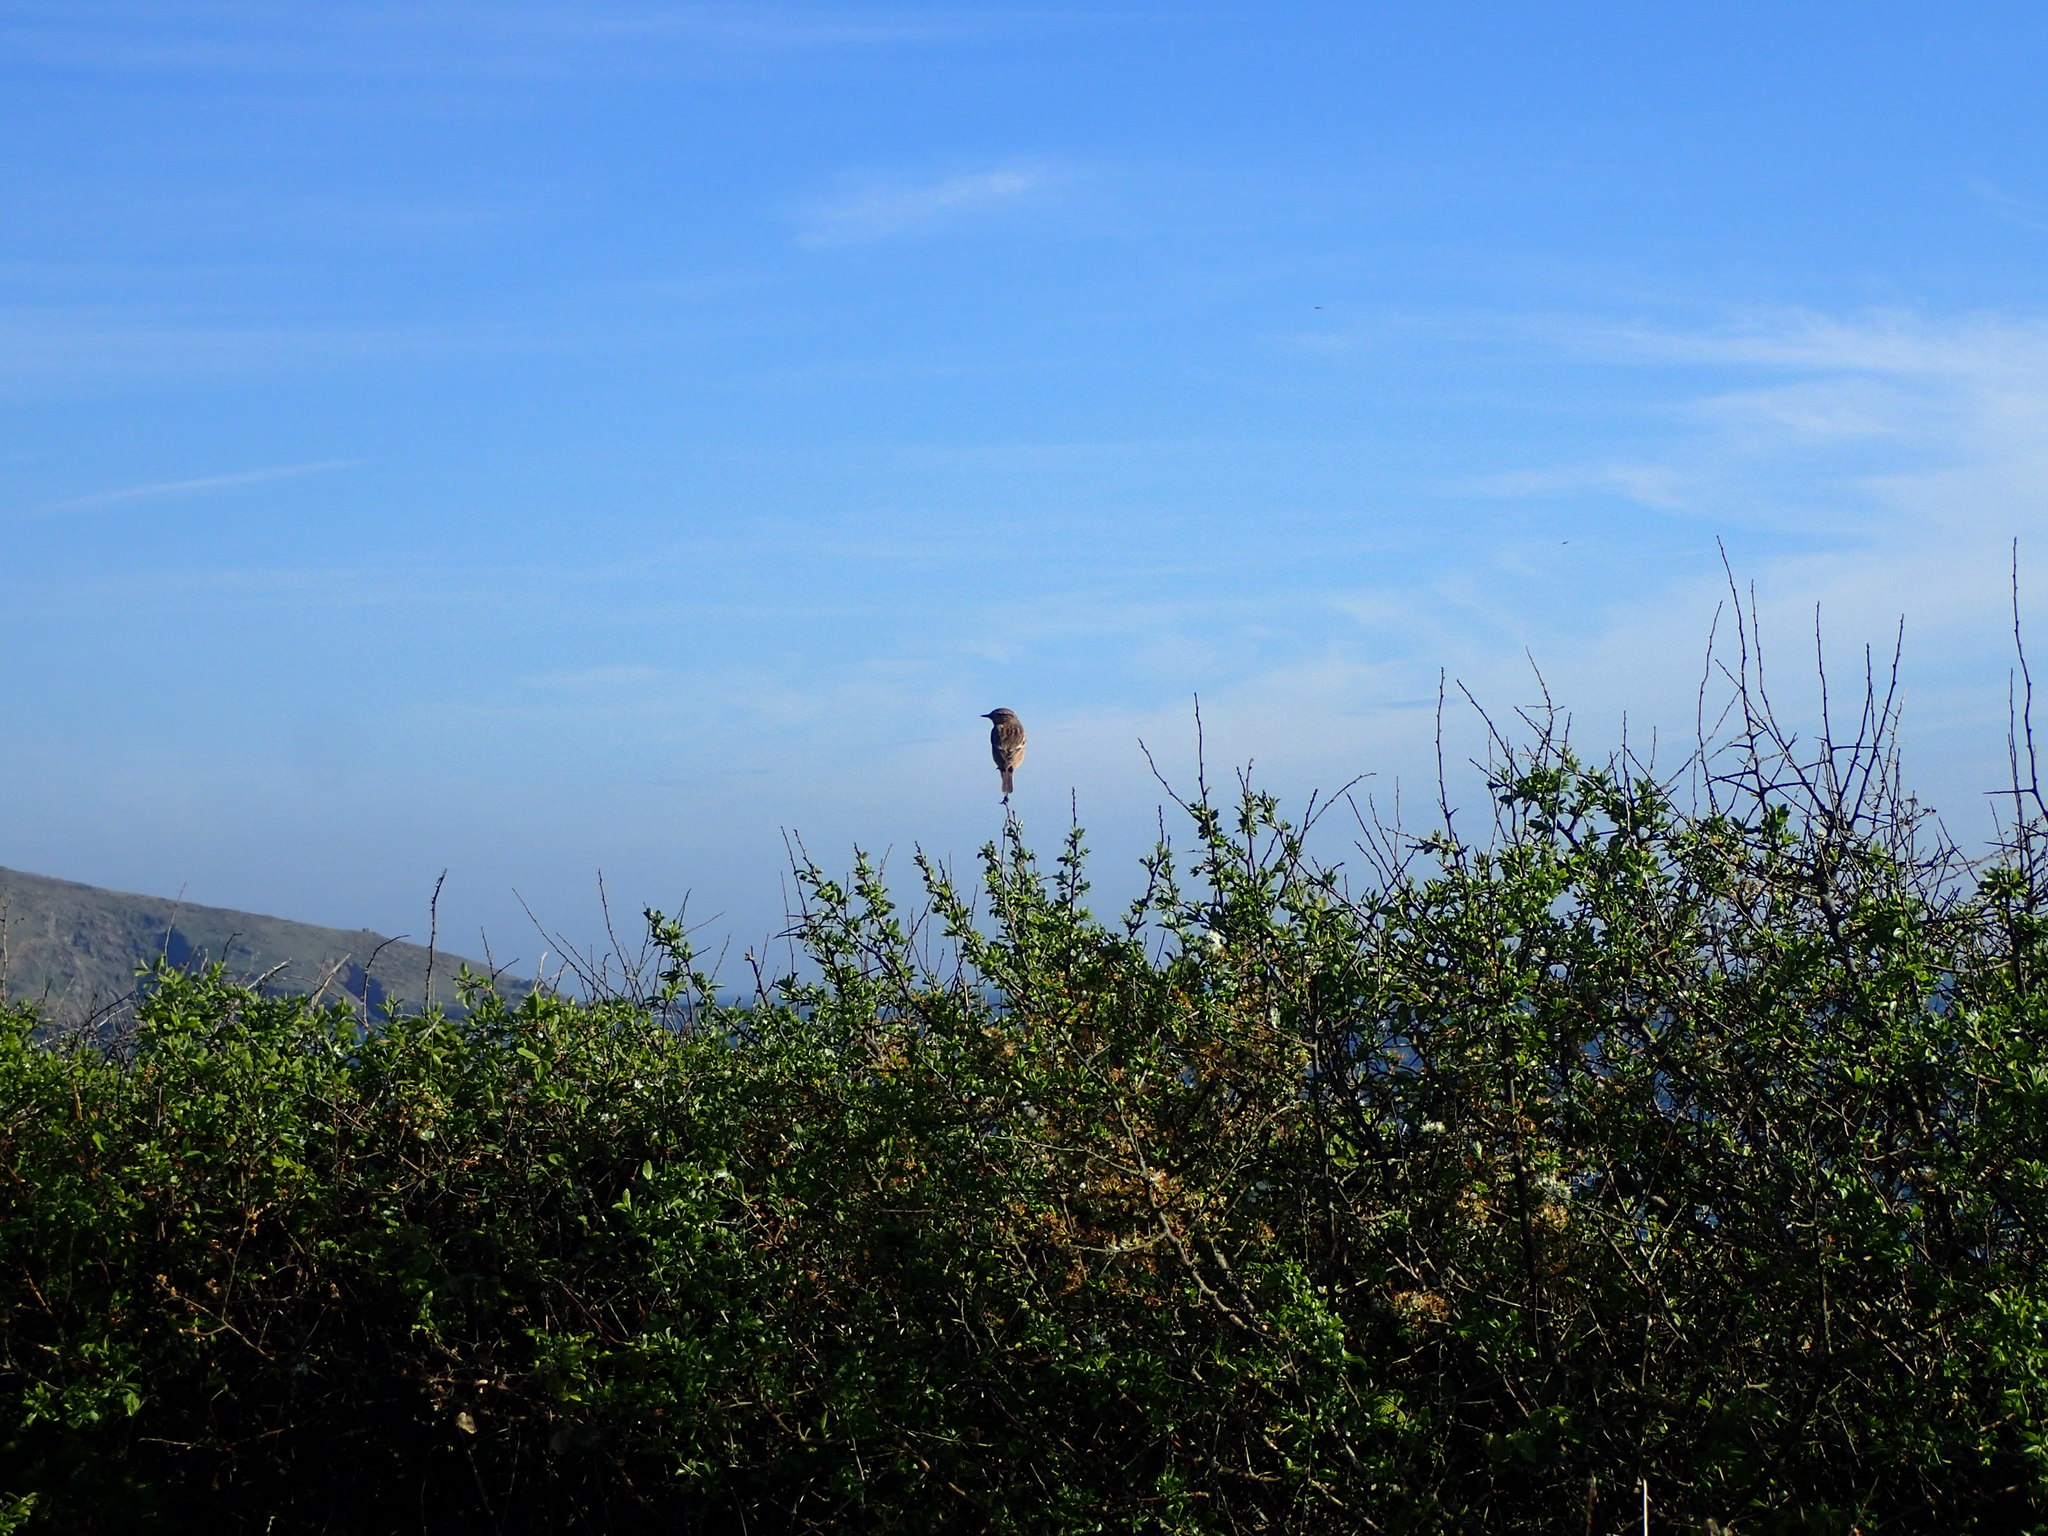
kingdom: Animalia
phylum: Chordata
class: Aves
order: Passeriformes
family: Muscicapidae
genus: Saxicola
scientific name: Saxicola rubicola
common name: European stonechat
